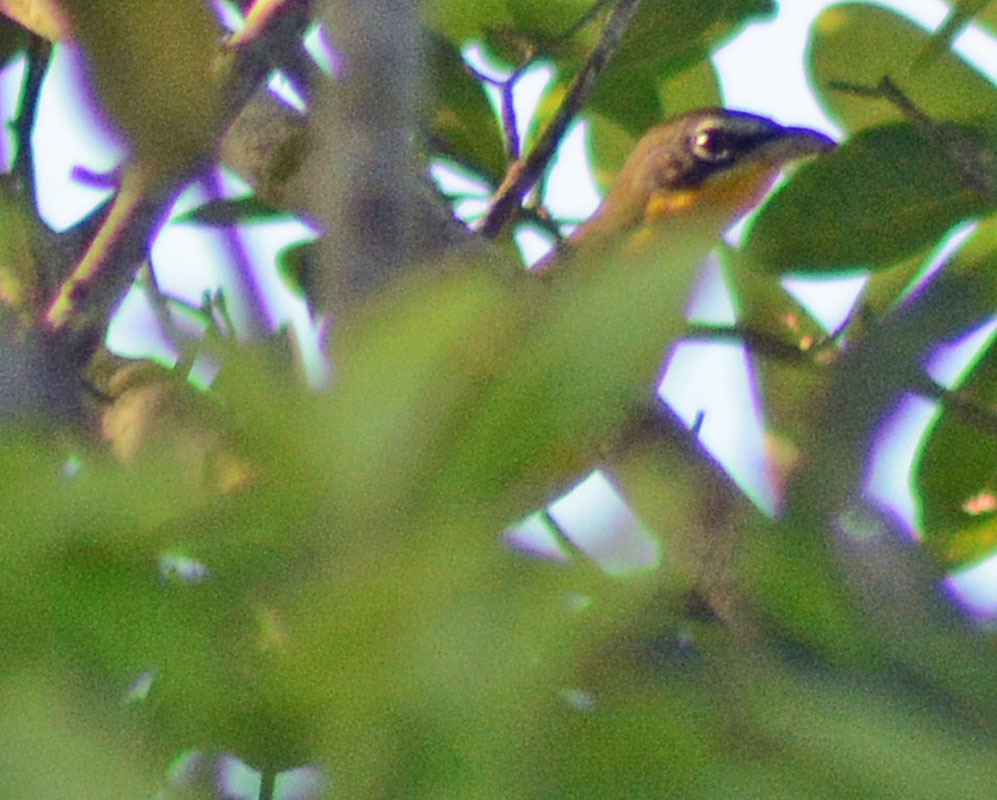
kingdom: Animalia
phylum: Chordata
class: Aves
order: Passeriformes
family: Parulidae
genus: Icteria
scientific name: Icteria virens
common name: Yellow-breasted chat
